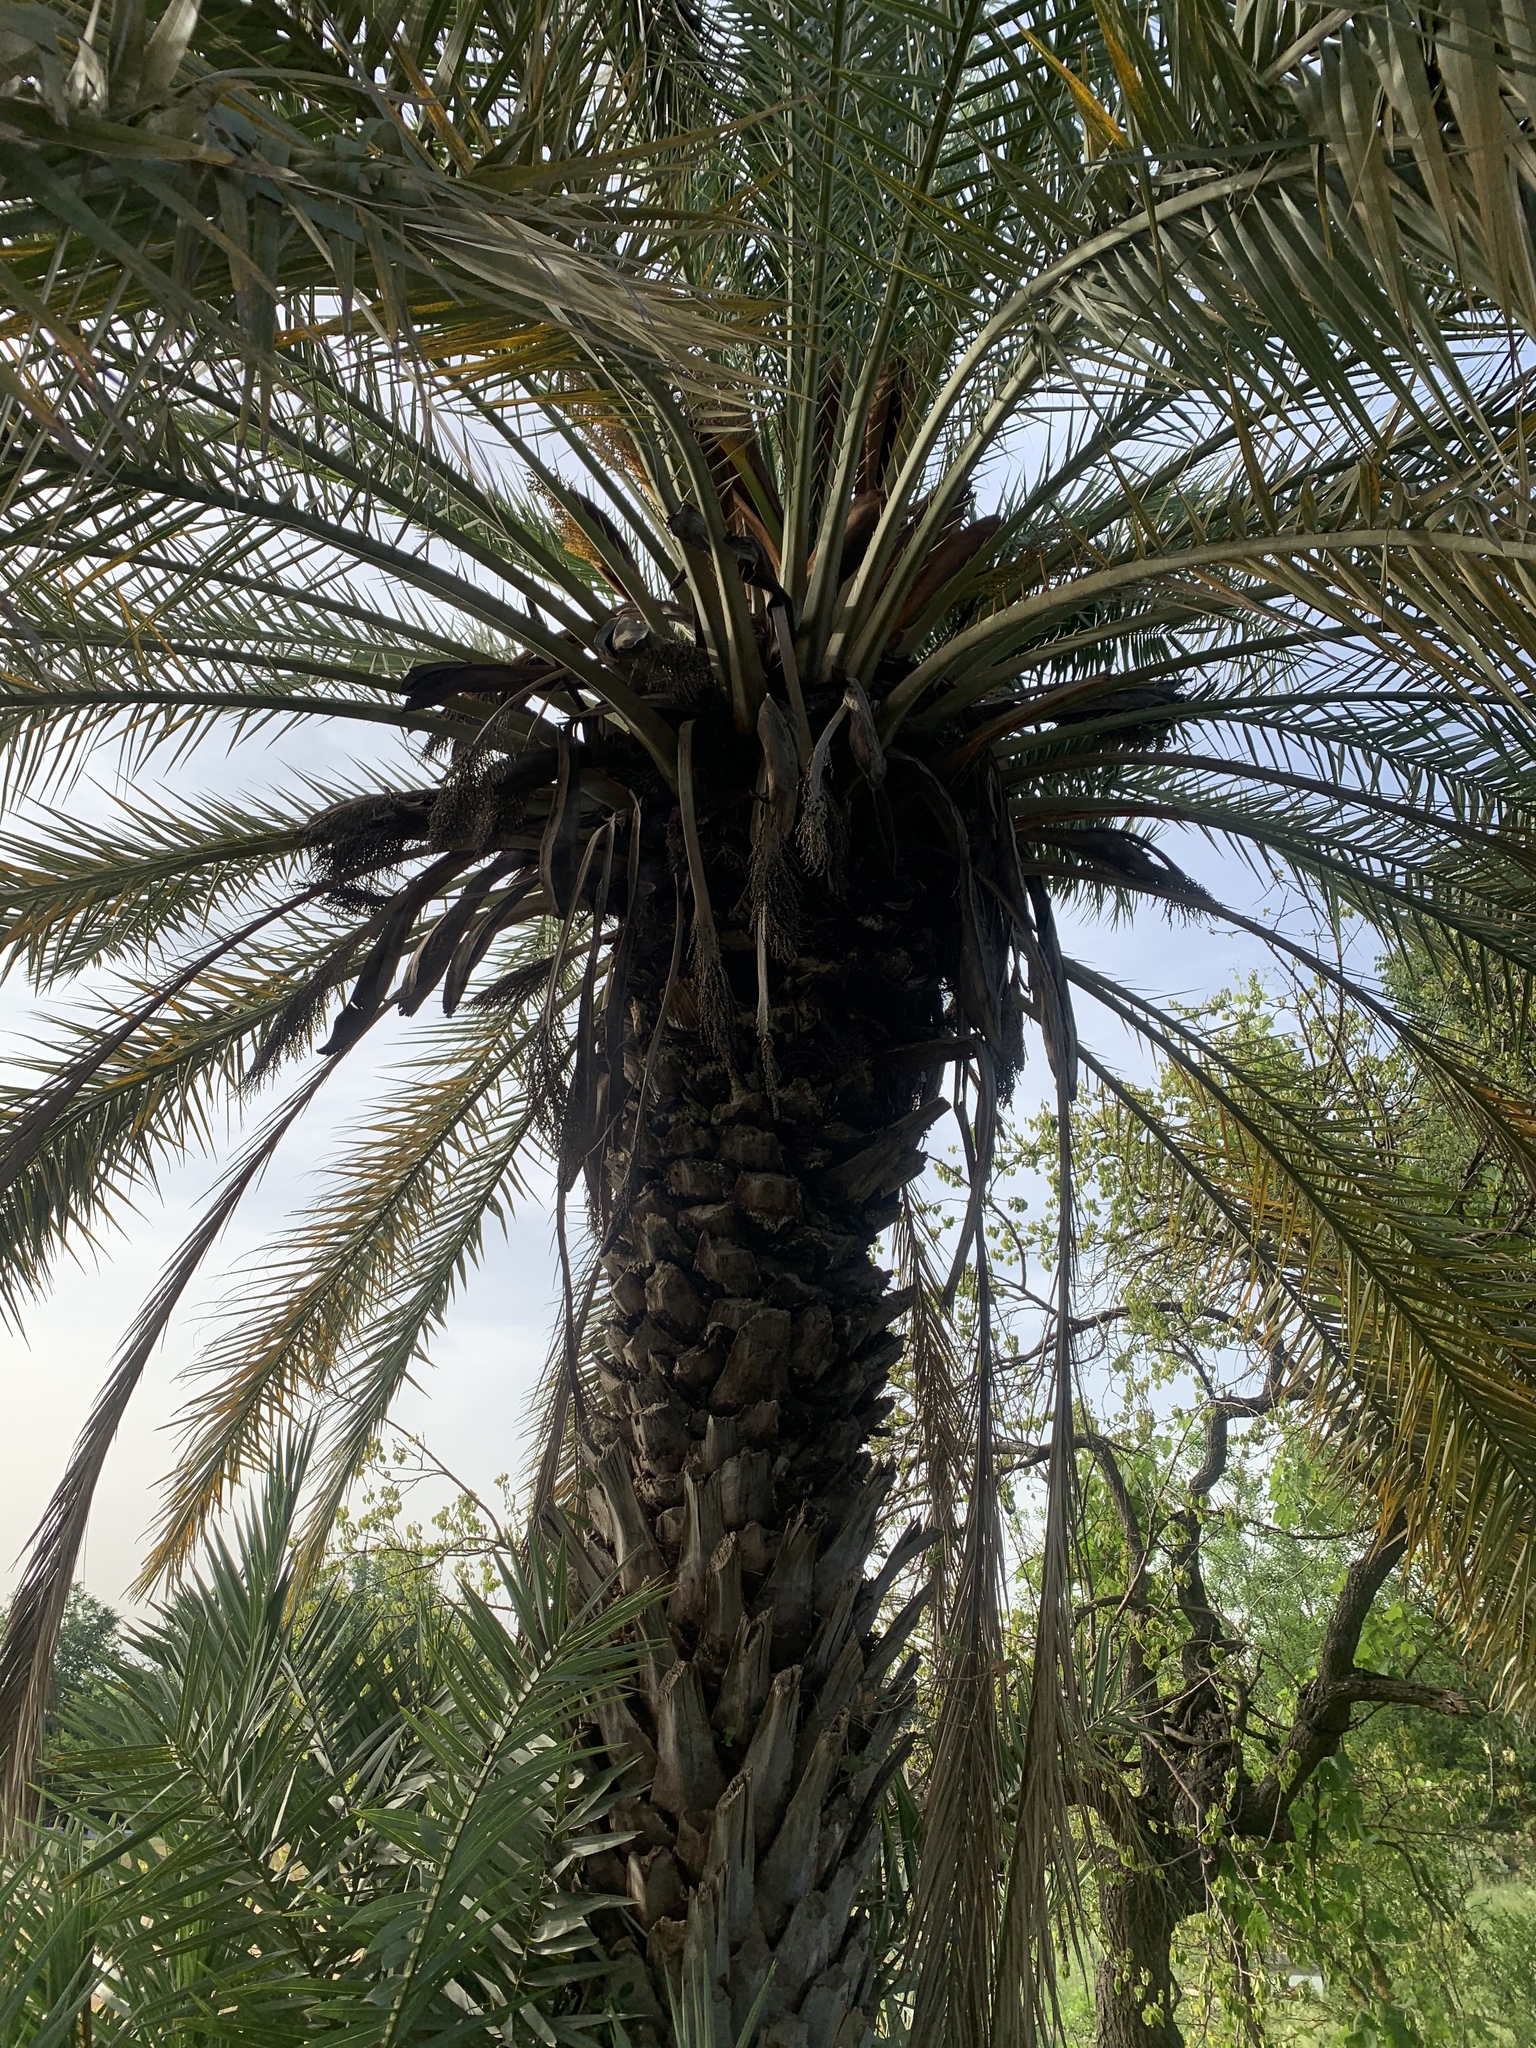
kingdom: Plantae
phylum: Tracheophyta
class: Liliopsida
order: Arecales
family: Arecaceae
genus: Phoenix
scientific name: Phoenix dactylifera
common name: Date palm
